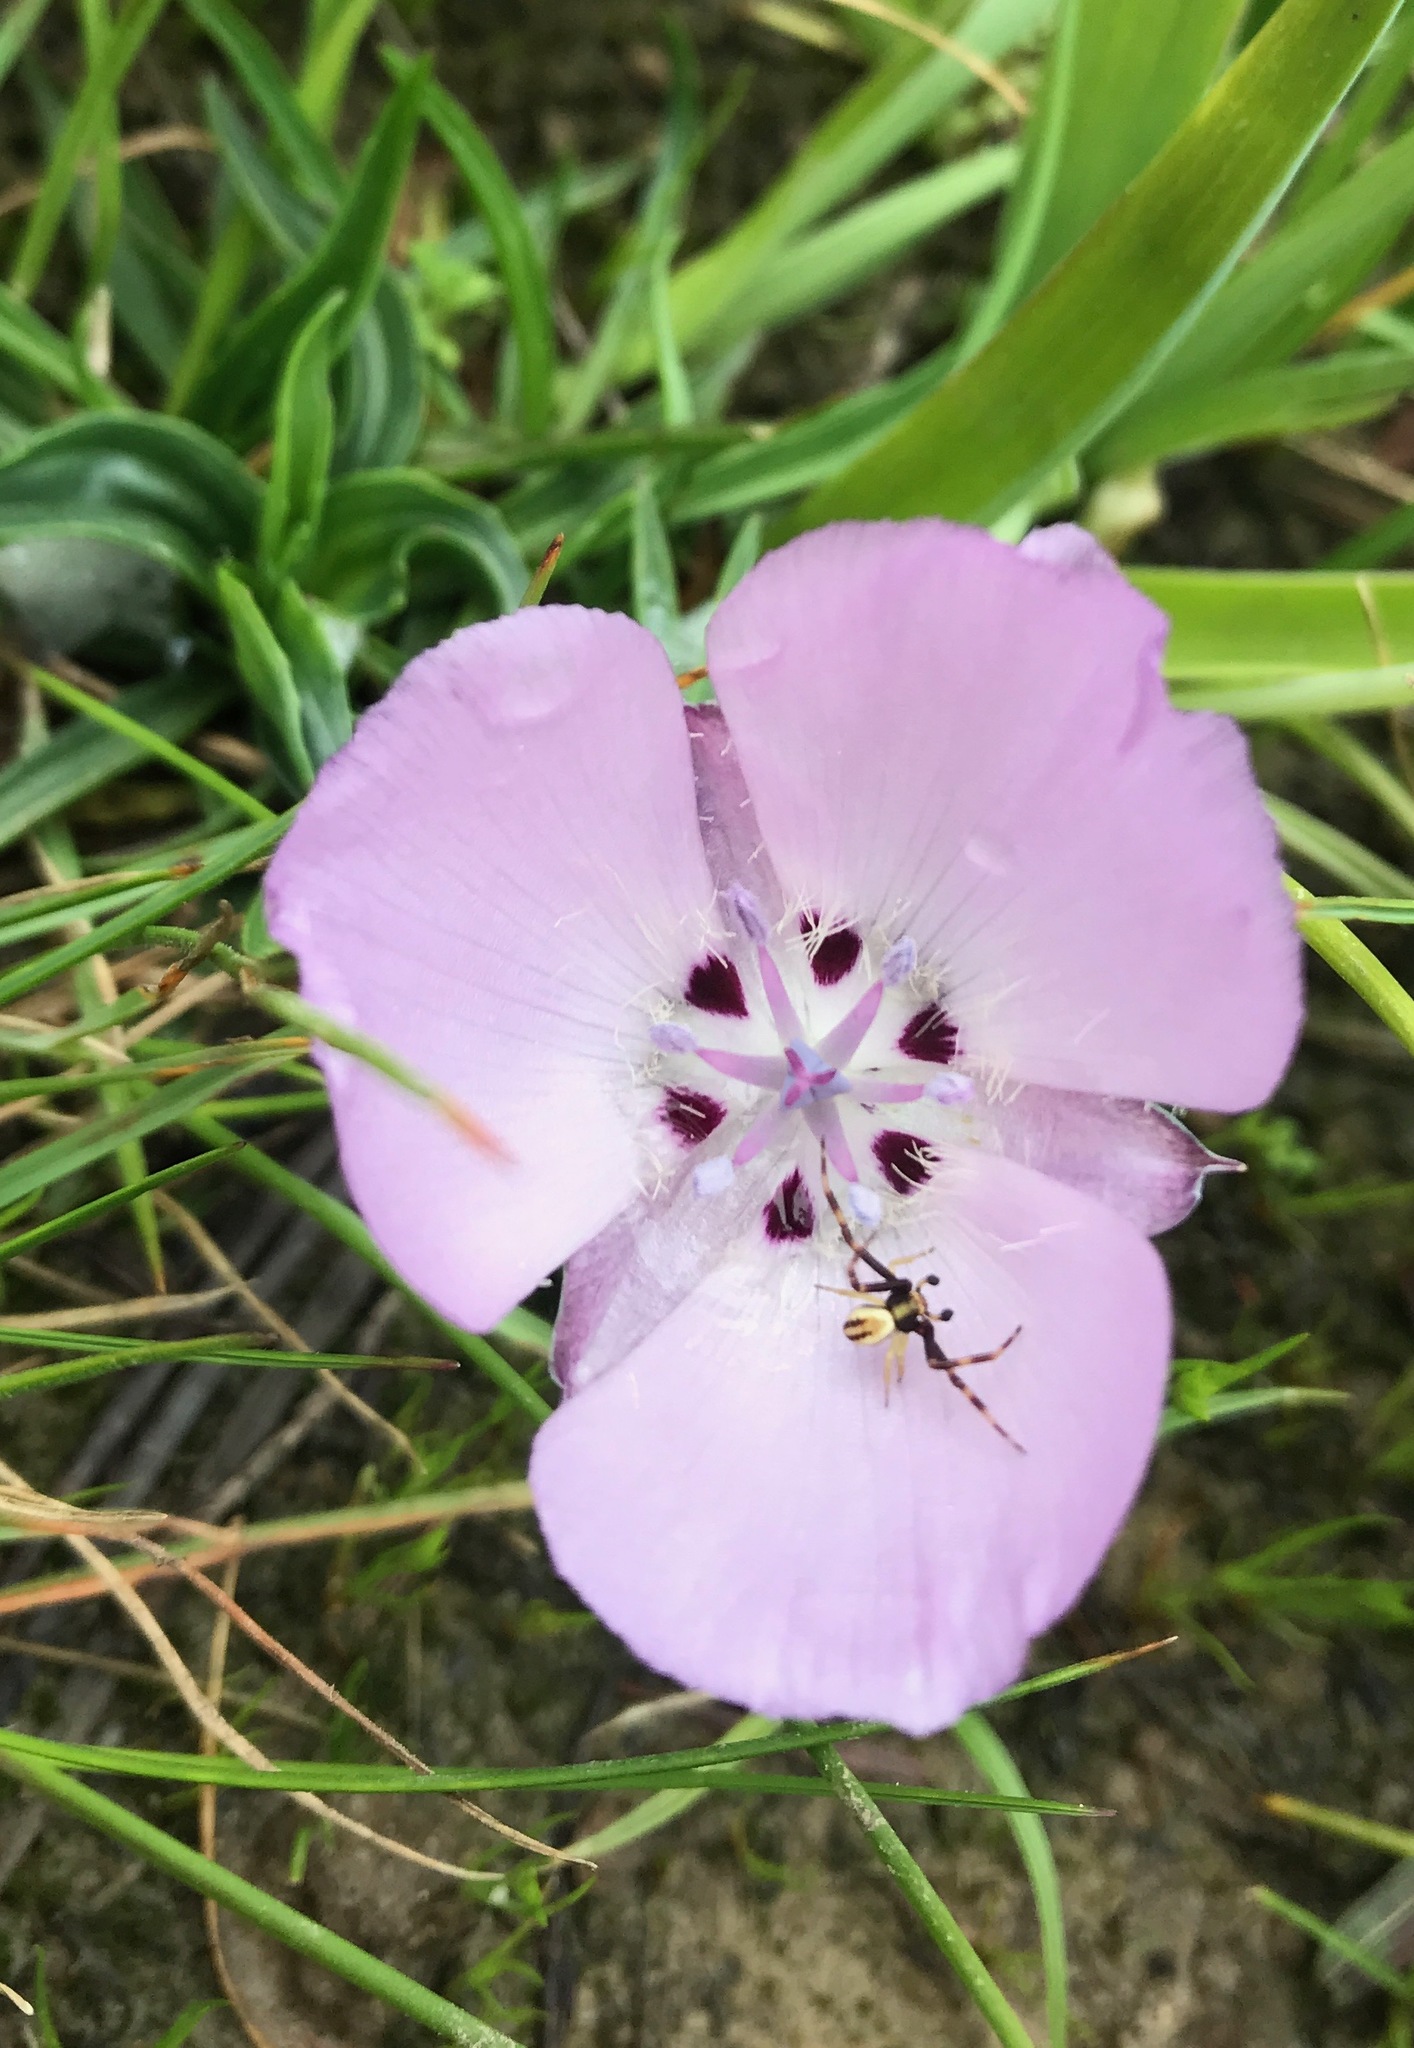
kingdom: Plantae
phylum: Tracheophyta
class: Liliopsida
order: Liliales
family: Liliaceae
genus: Calochortus
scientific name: Calochortus uniflorus
